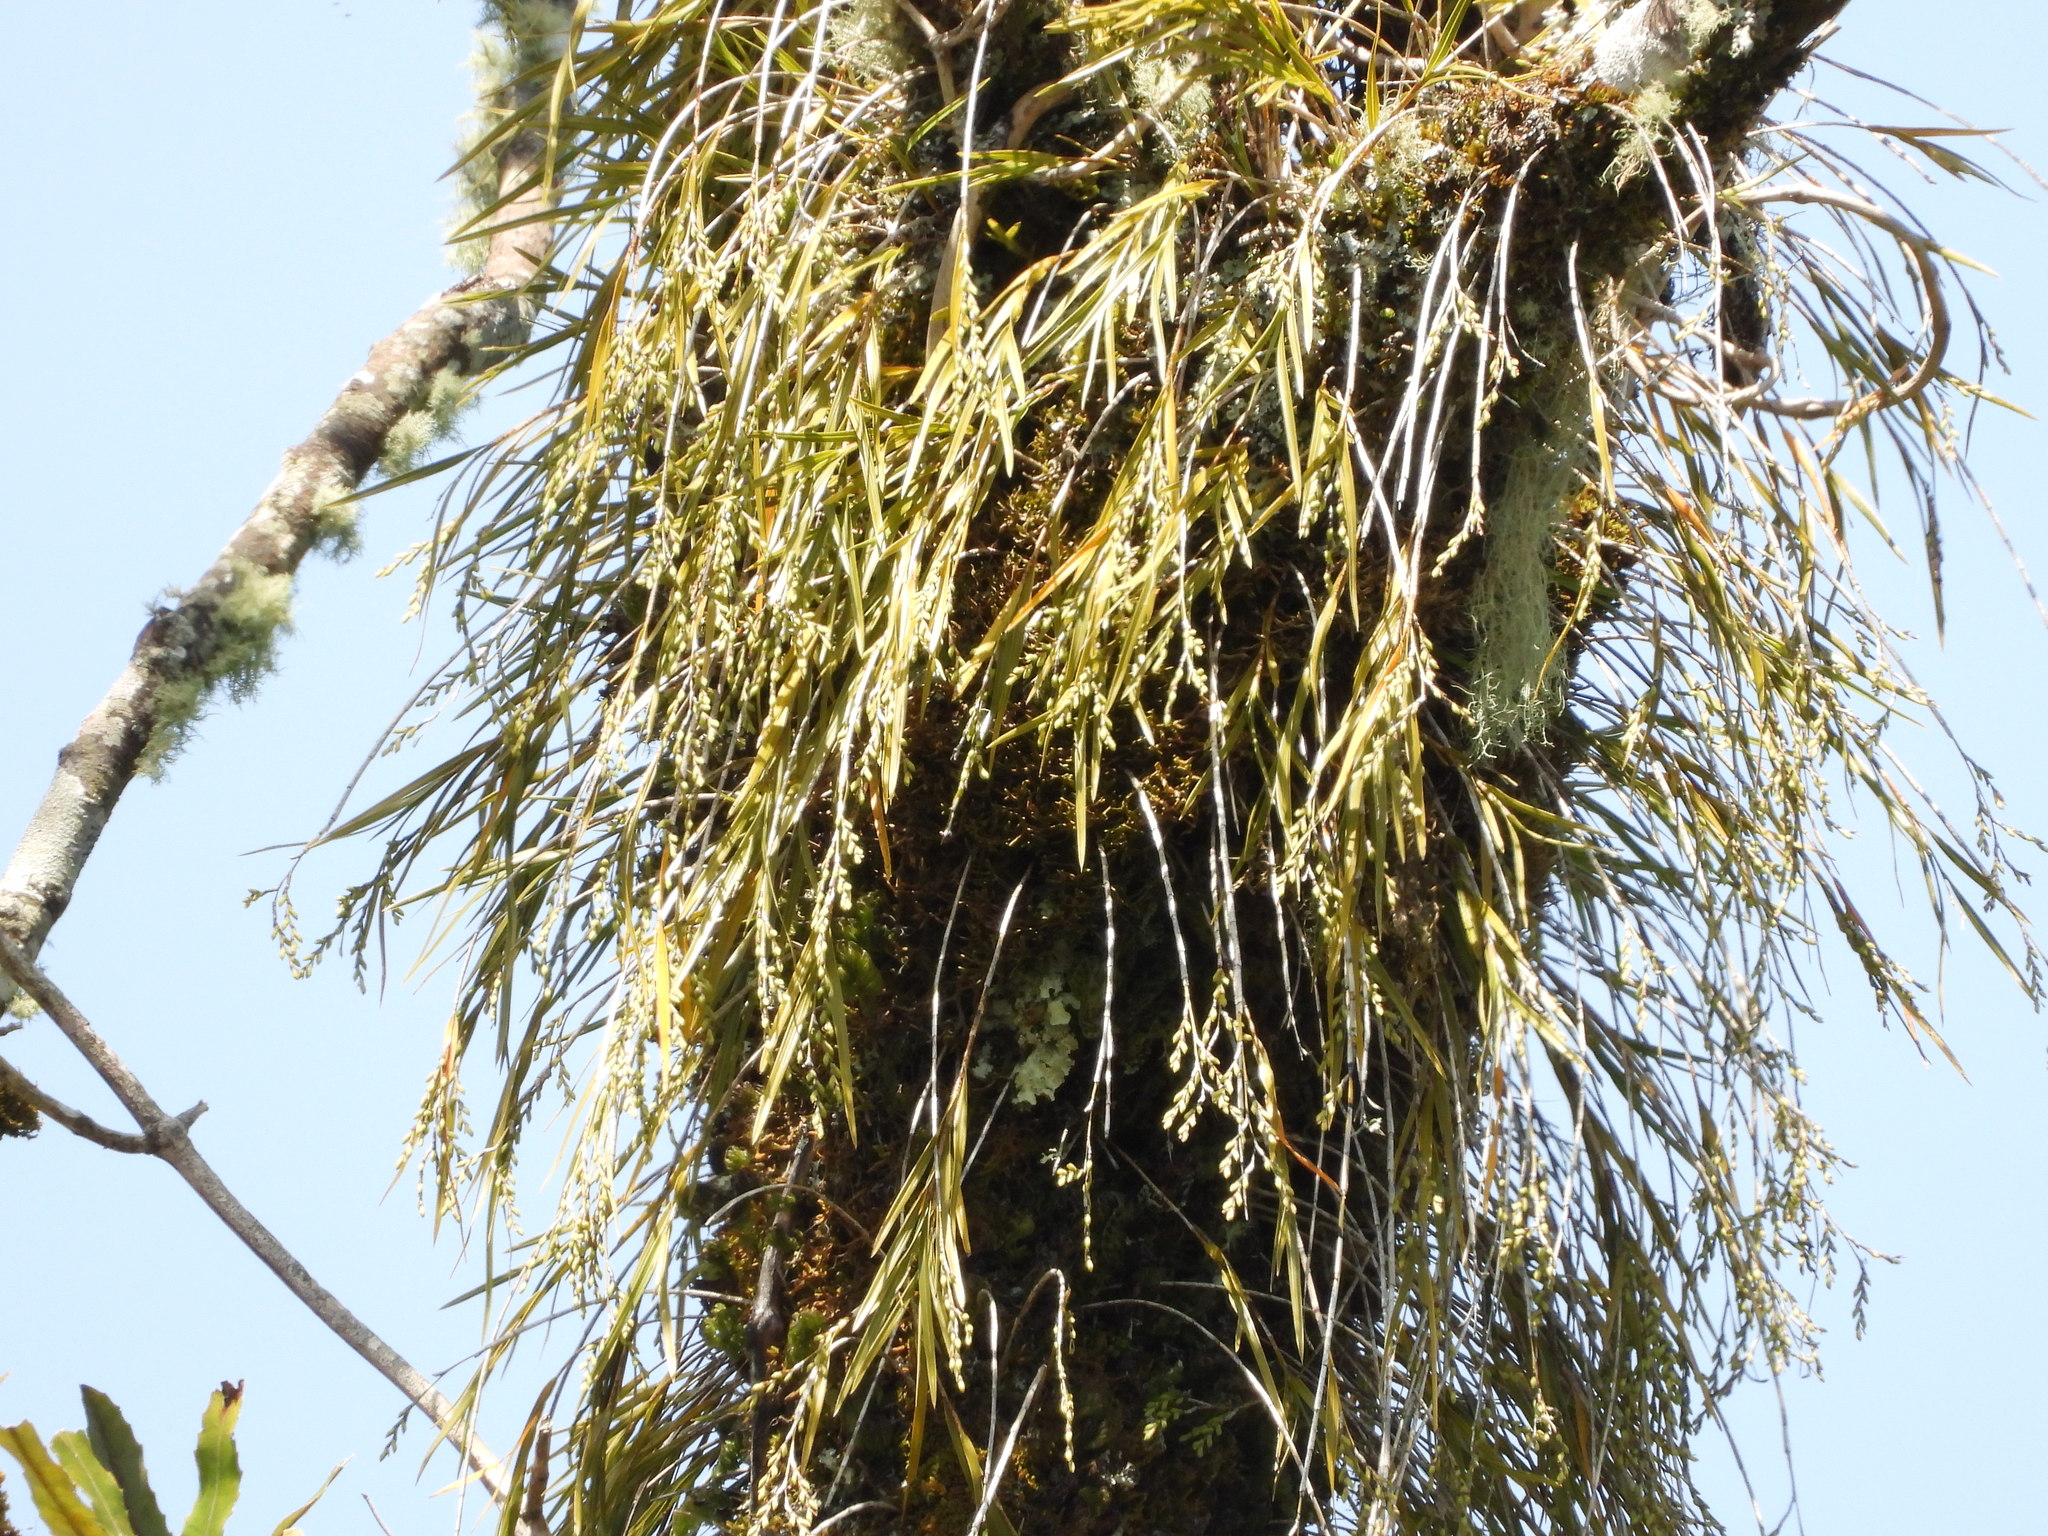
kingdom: Plantae
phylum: Tracheophyta
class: Liliopsida
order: Asparagales
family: Orchidaceae
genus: Earina
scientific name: Earina mucronata
